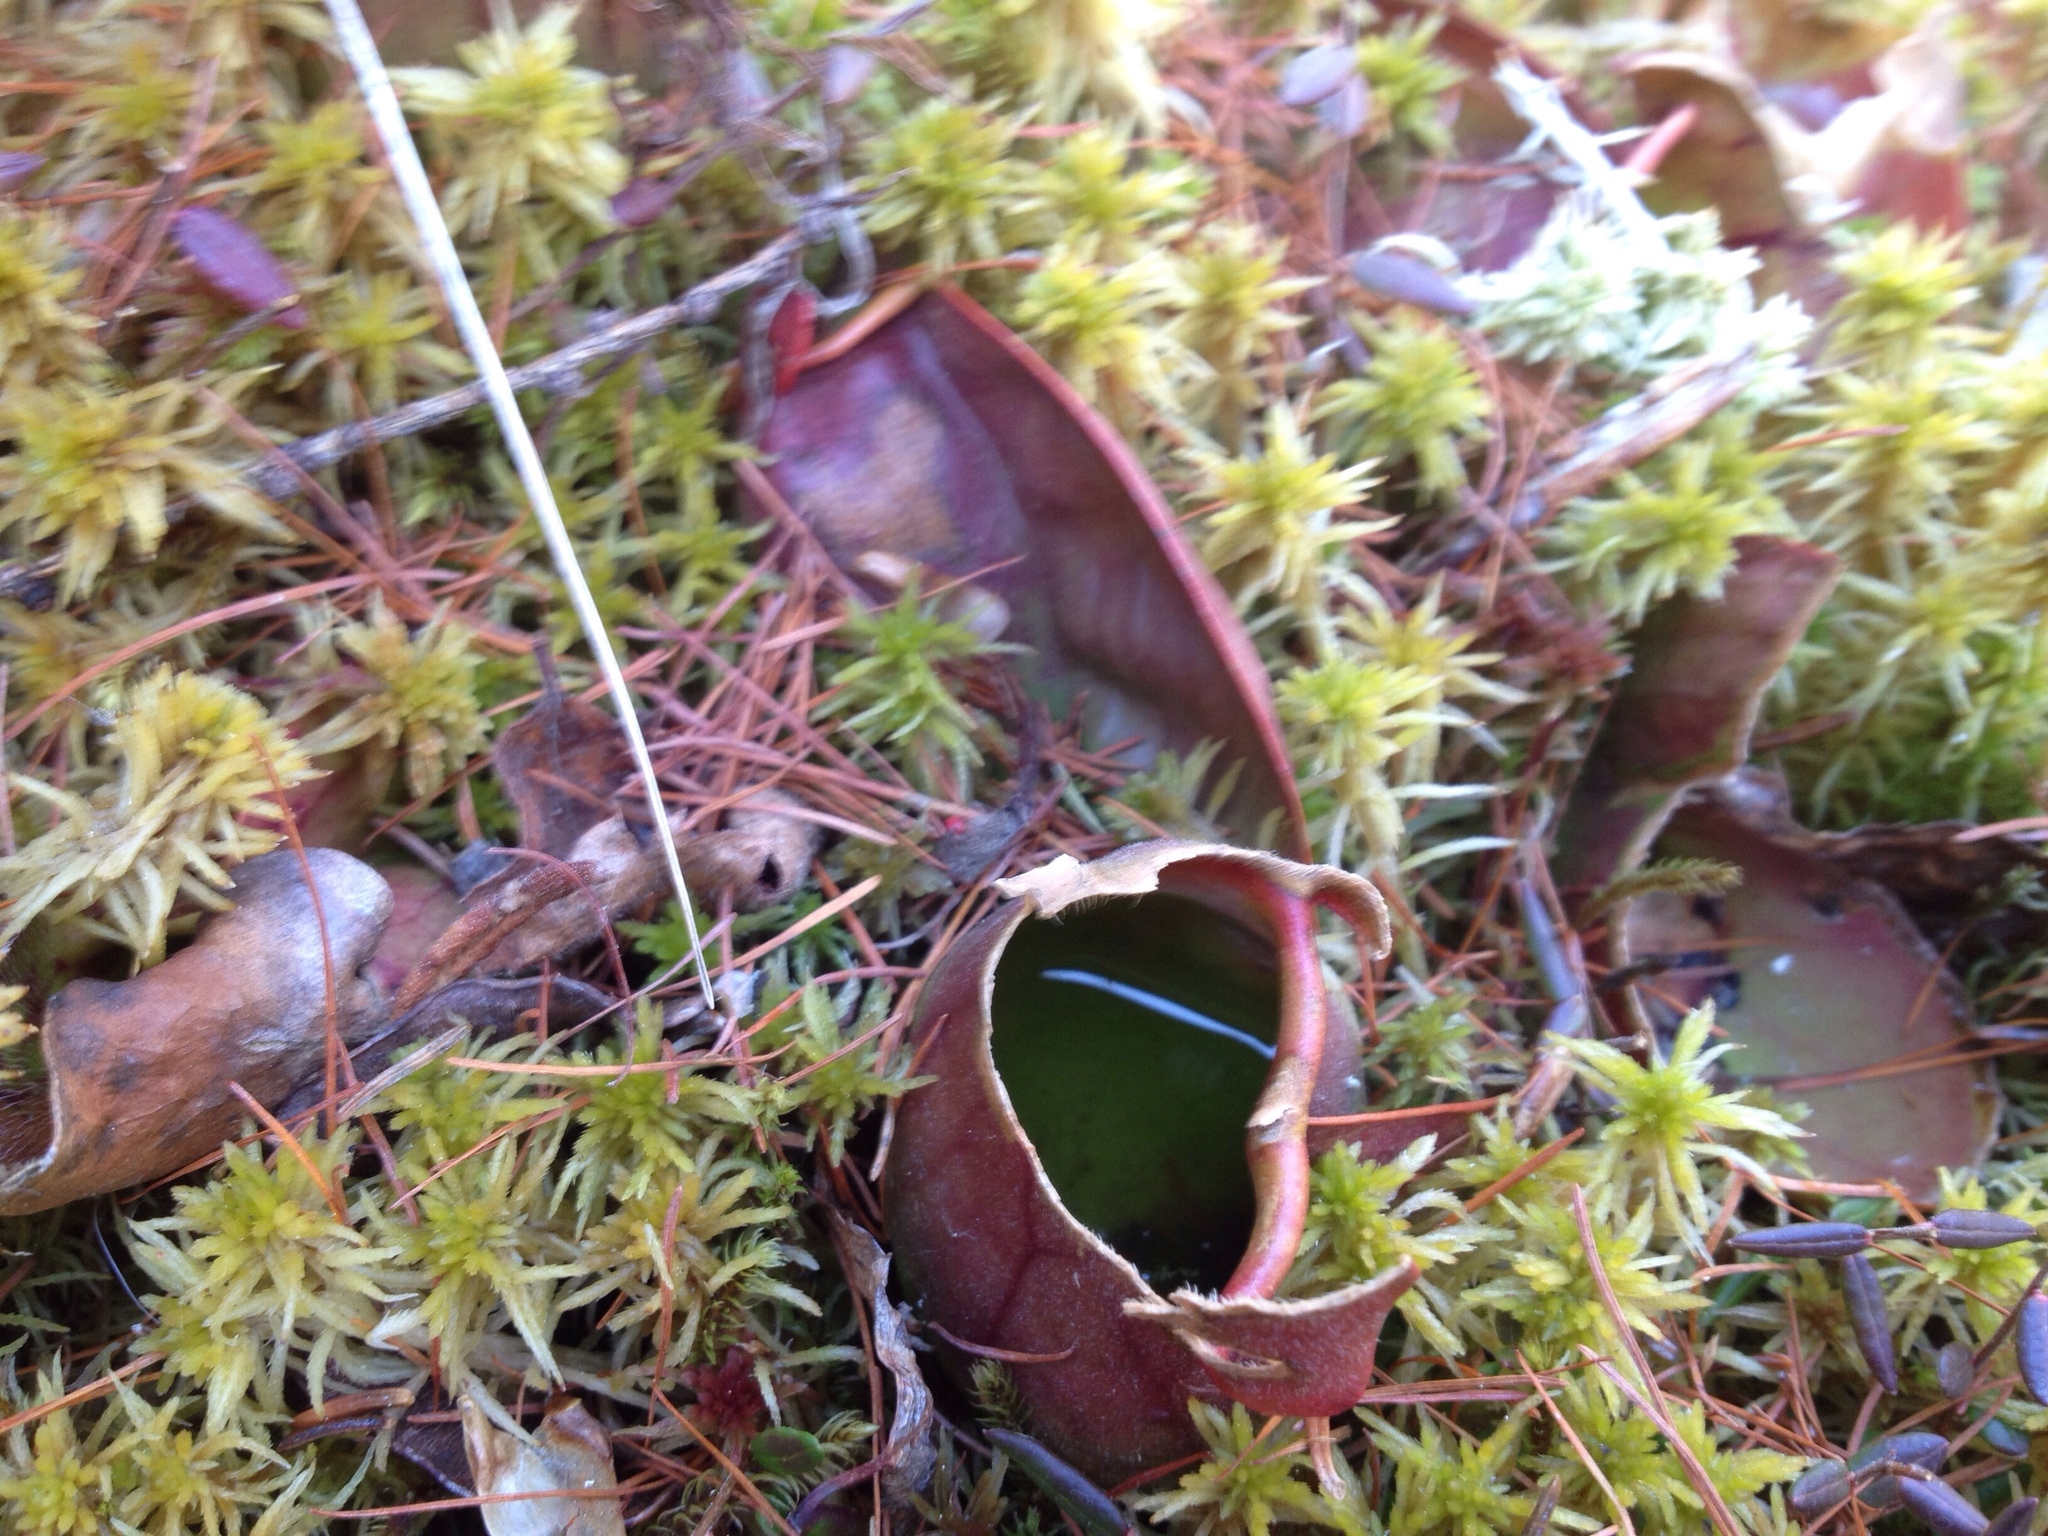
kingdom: Plantae
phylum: Tracheophyta
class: Magnoliopsida
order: Ericales
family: Sarraceniaceae
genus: Sarracenia
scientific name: Sarracenia purpurea
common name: Pitcherplant
